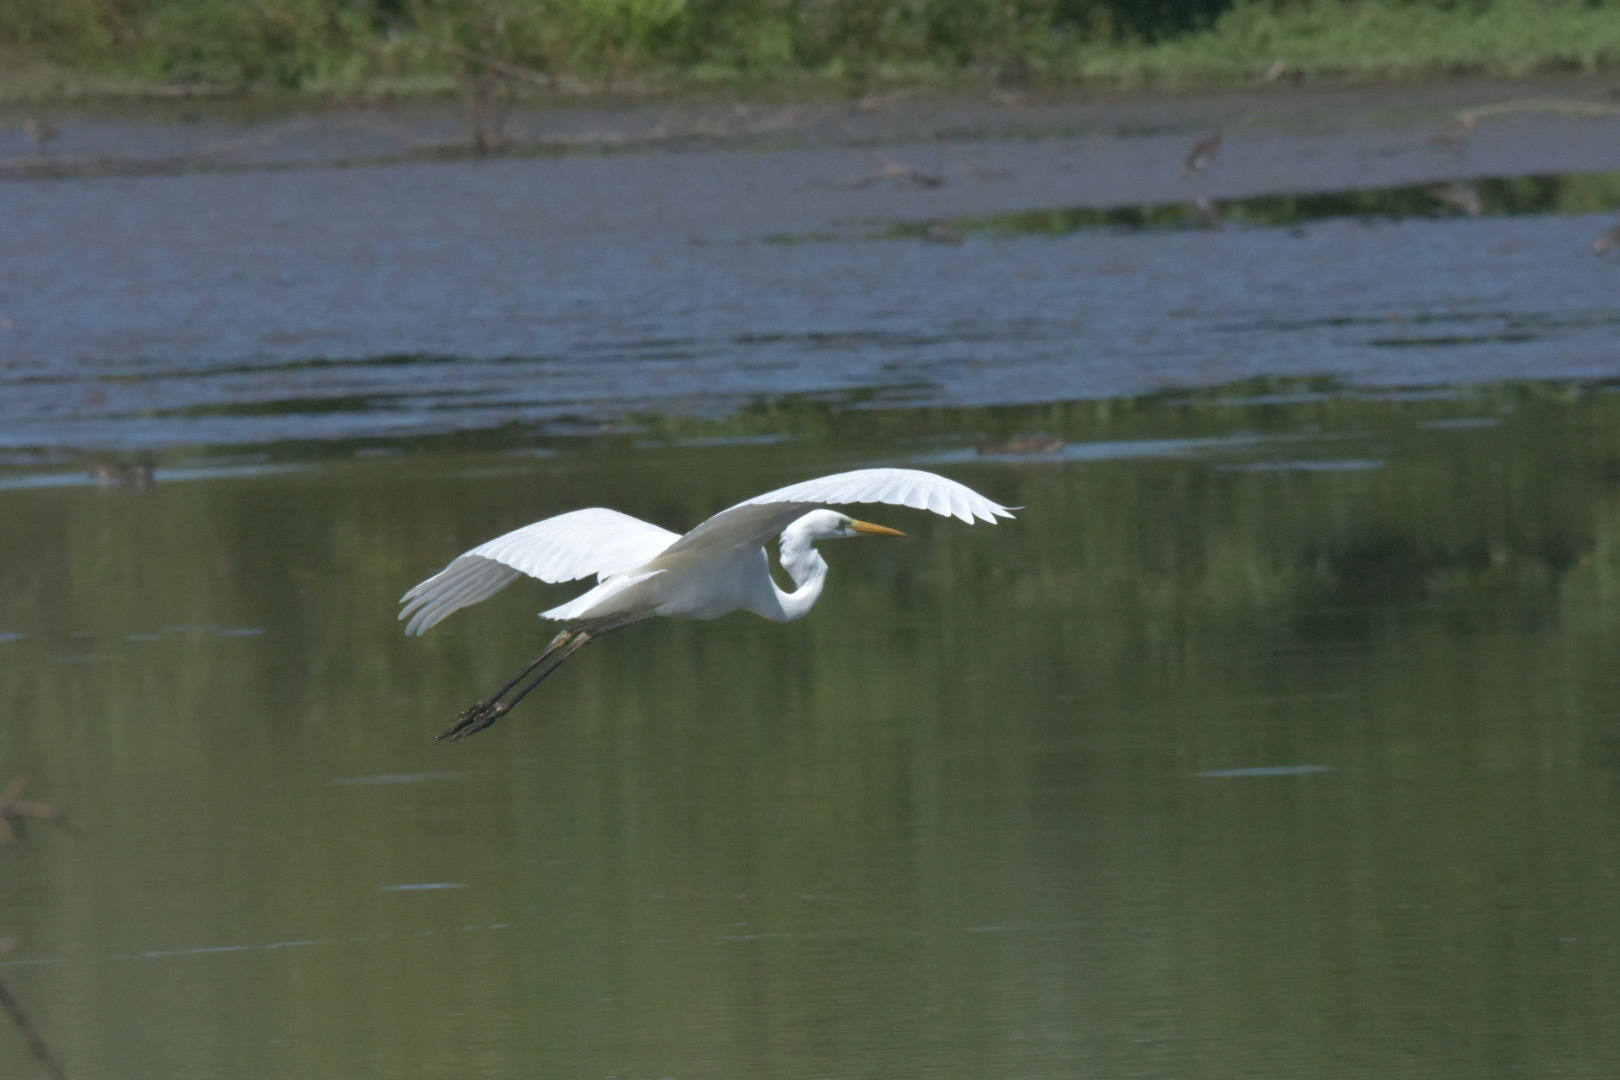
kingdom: Animalia
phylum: Chordata
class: Aves
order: Pelecaniformes
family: Ardeidae
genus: Ardea
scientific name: Ardea alba
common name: Great egret
